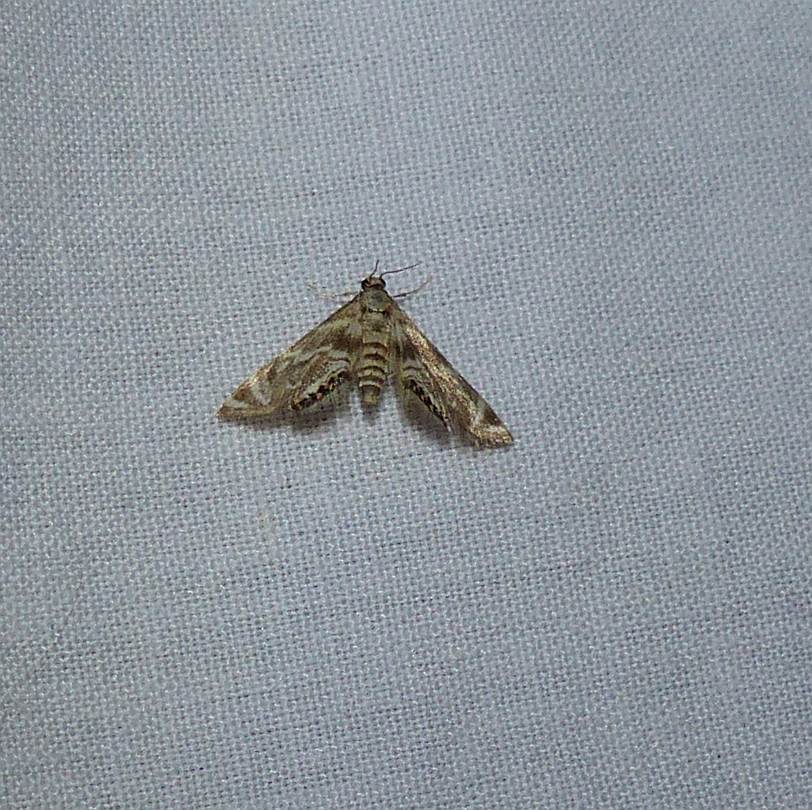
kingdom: Animalia
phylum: Arthropoda
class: Insecta
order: Lepidoptera
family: Crambidae
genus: Petrophila
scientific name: Petrophila canadensis
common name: Canadian petrophila
